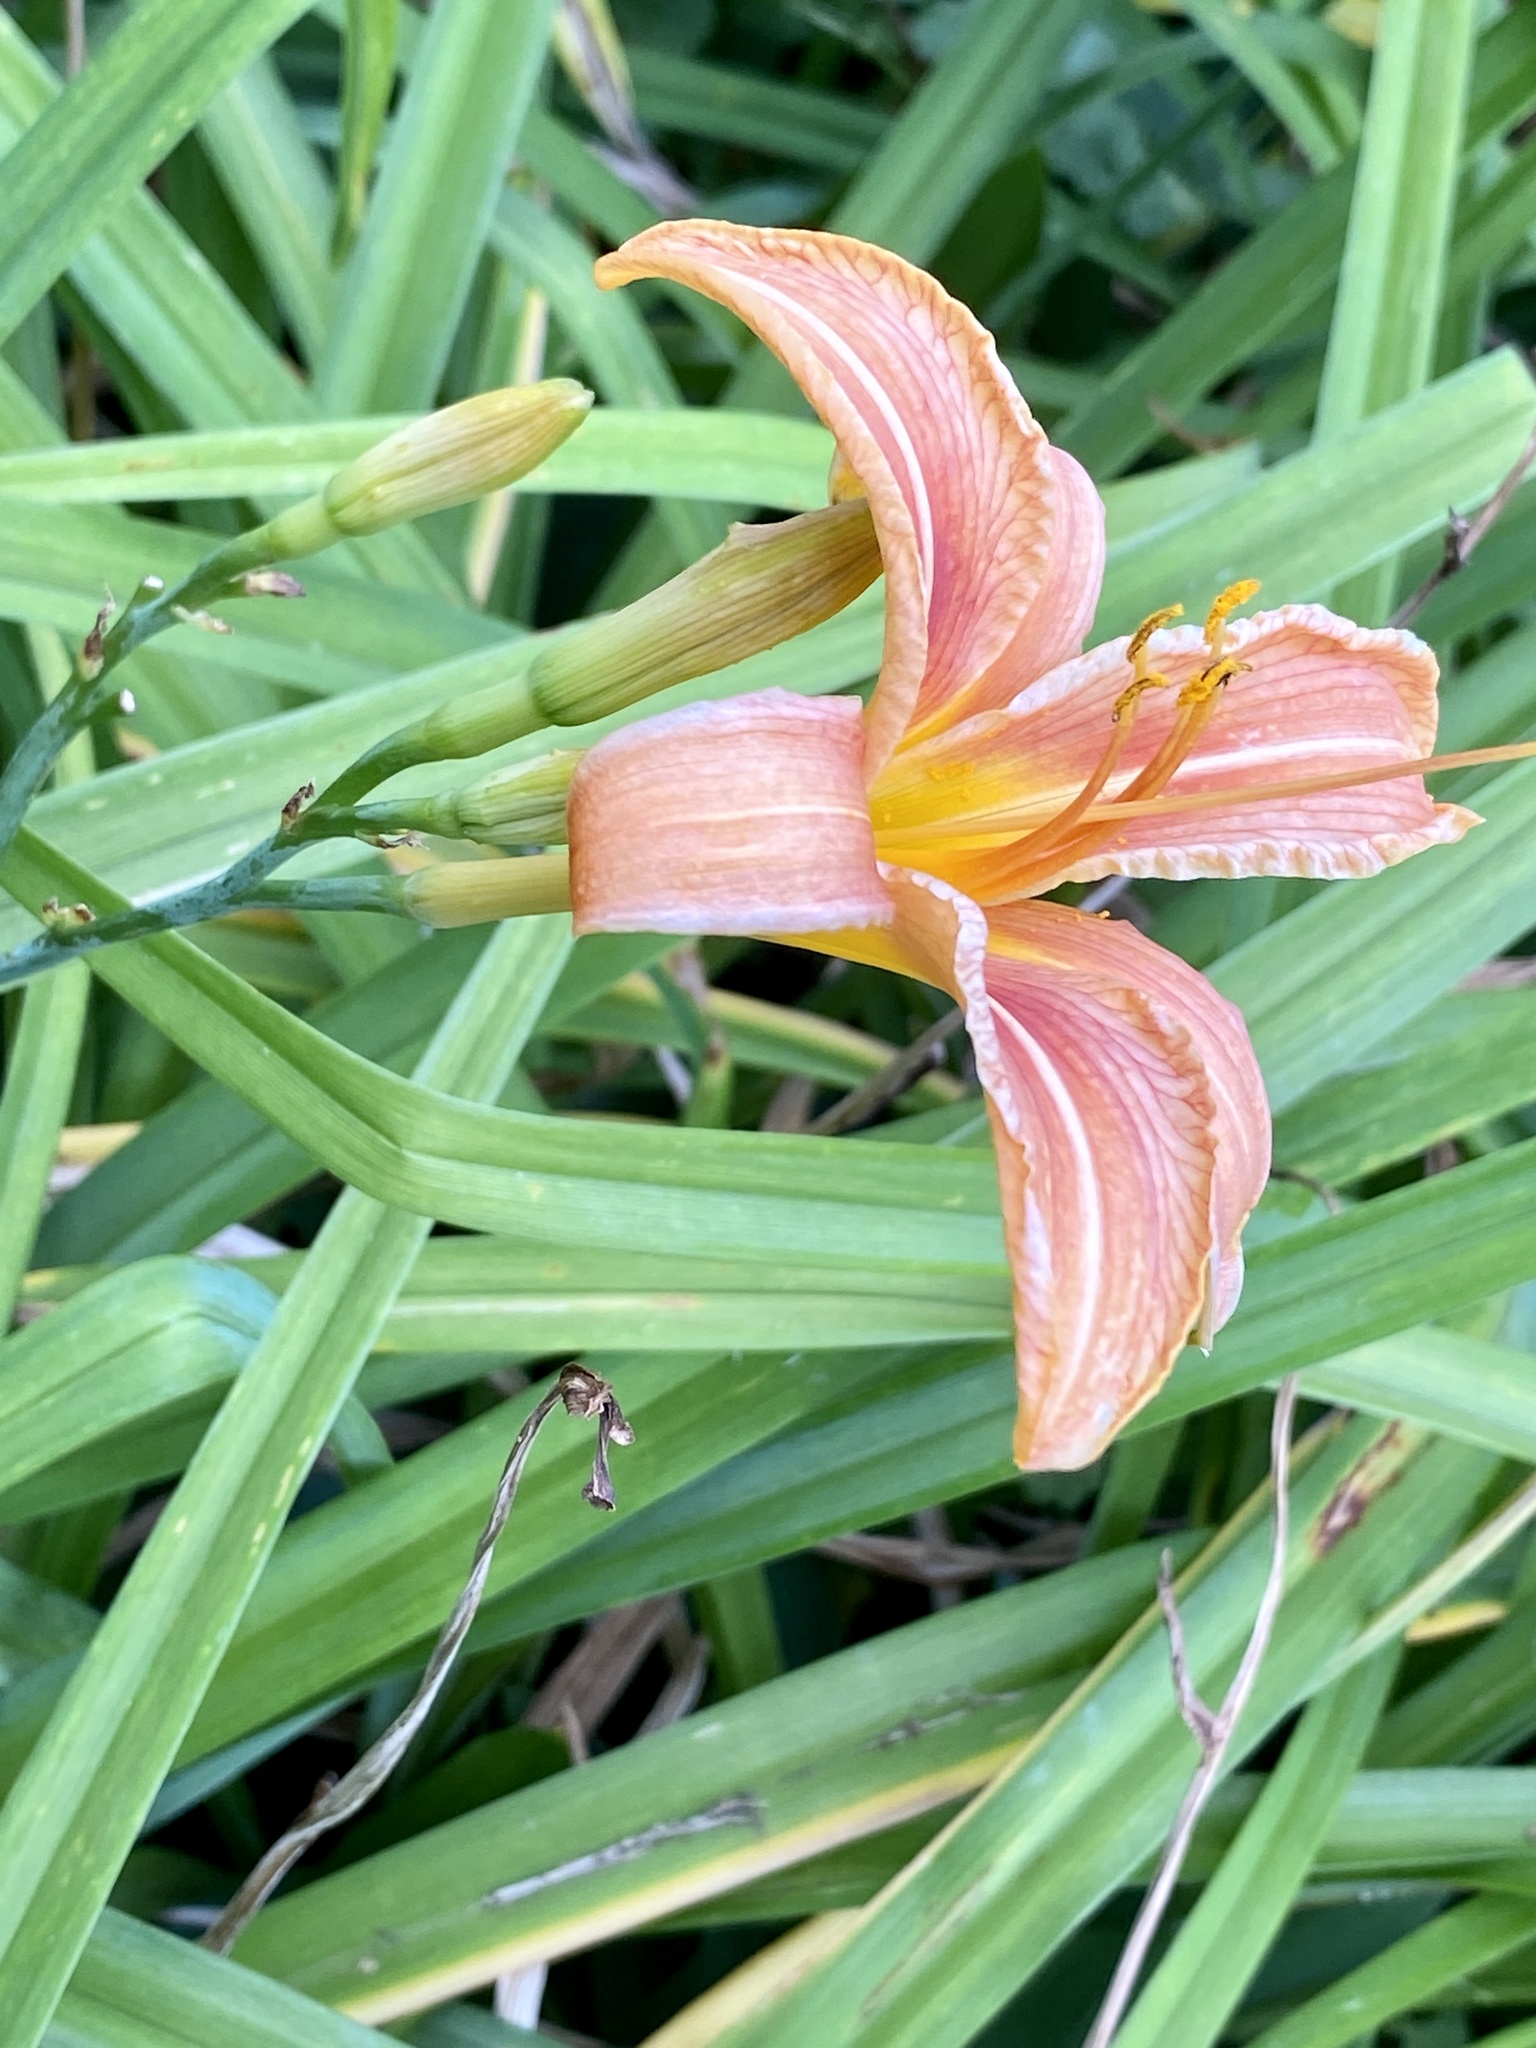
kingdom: Plantae
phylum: Tracheophyta
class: Liliopsida
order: Asparagales
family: Asphodelaceae
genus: Hemerocallis
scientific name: Hemerocallis fulva
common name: Orange day-lily
